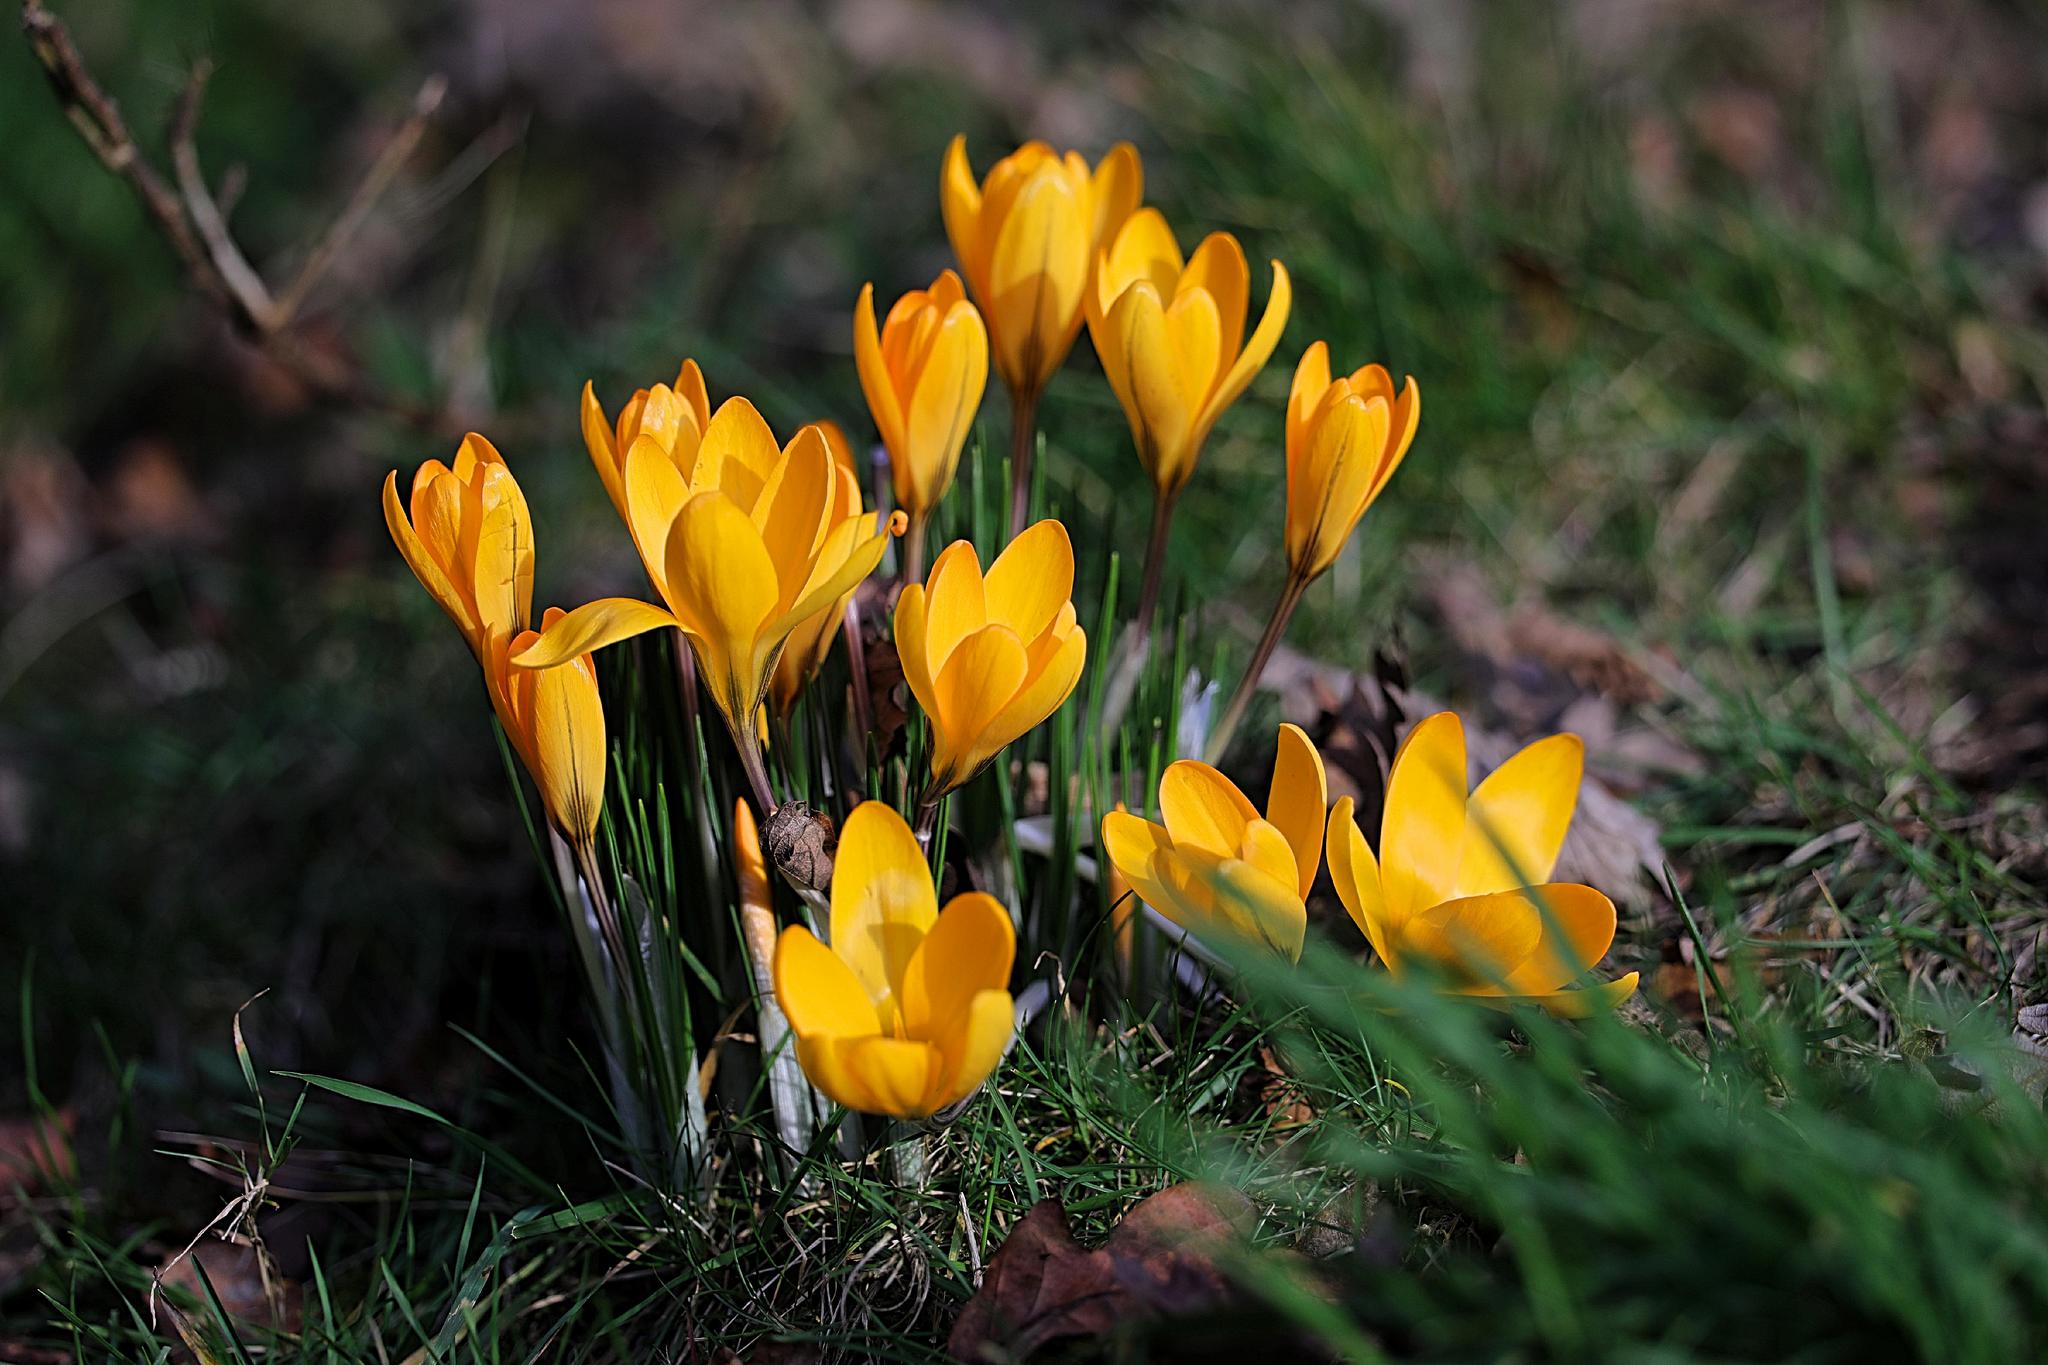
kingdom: Plantae
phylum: Tracheophyta
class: Liliopsida
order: Asparagales
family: Iridaceae
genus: Crocus
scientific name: Crocus luteus
